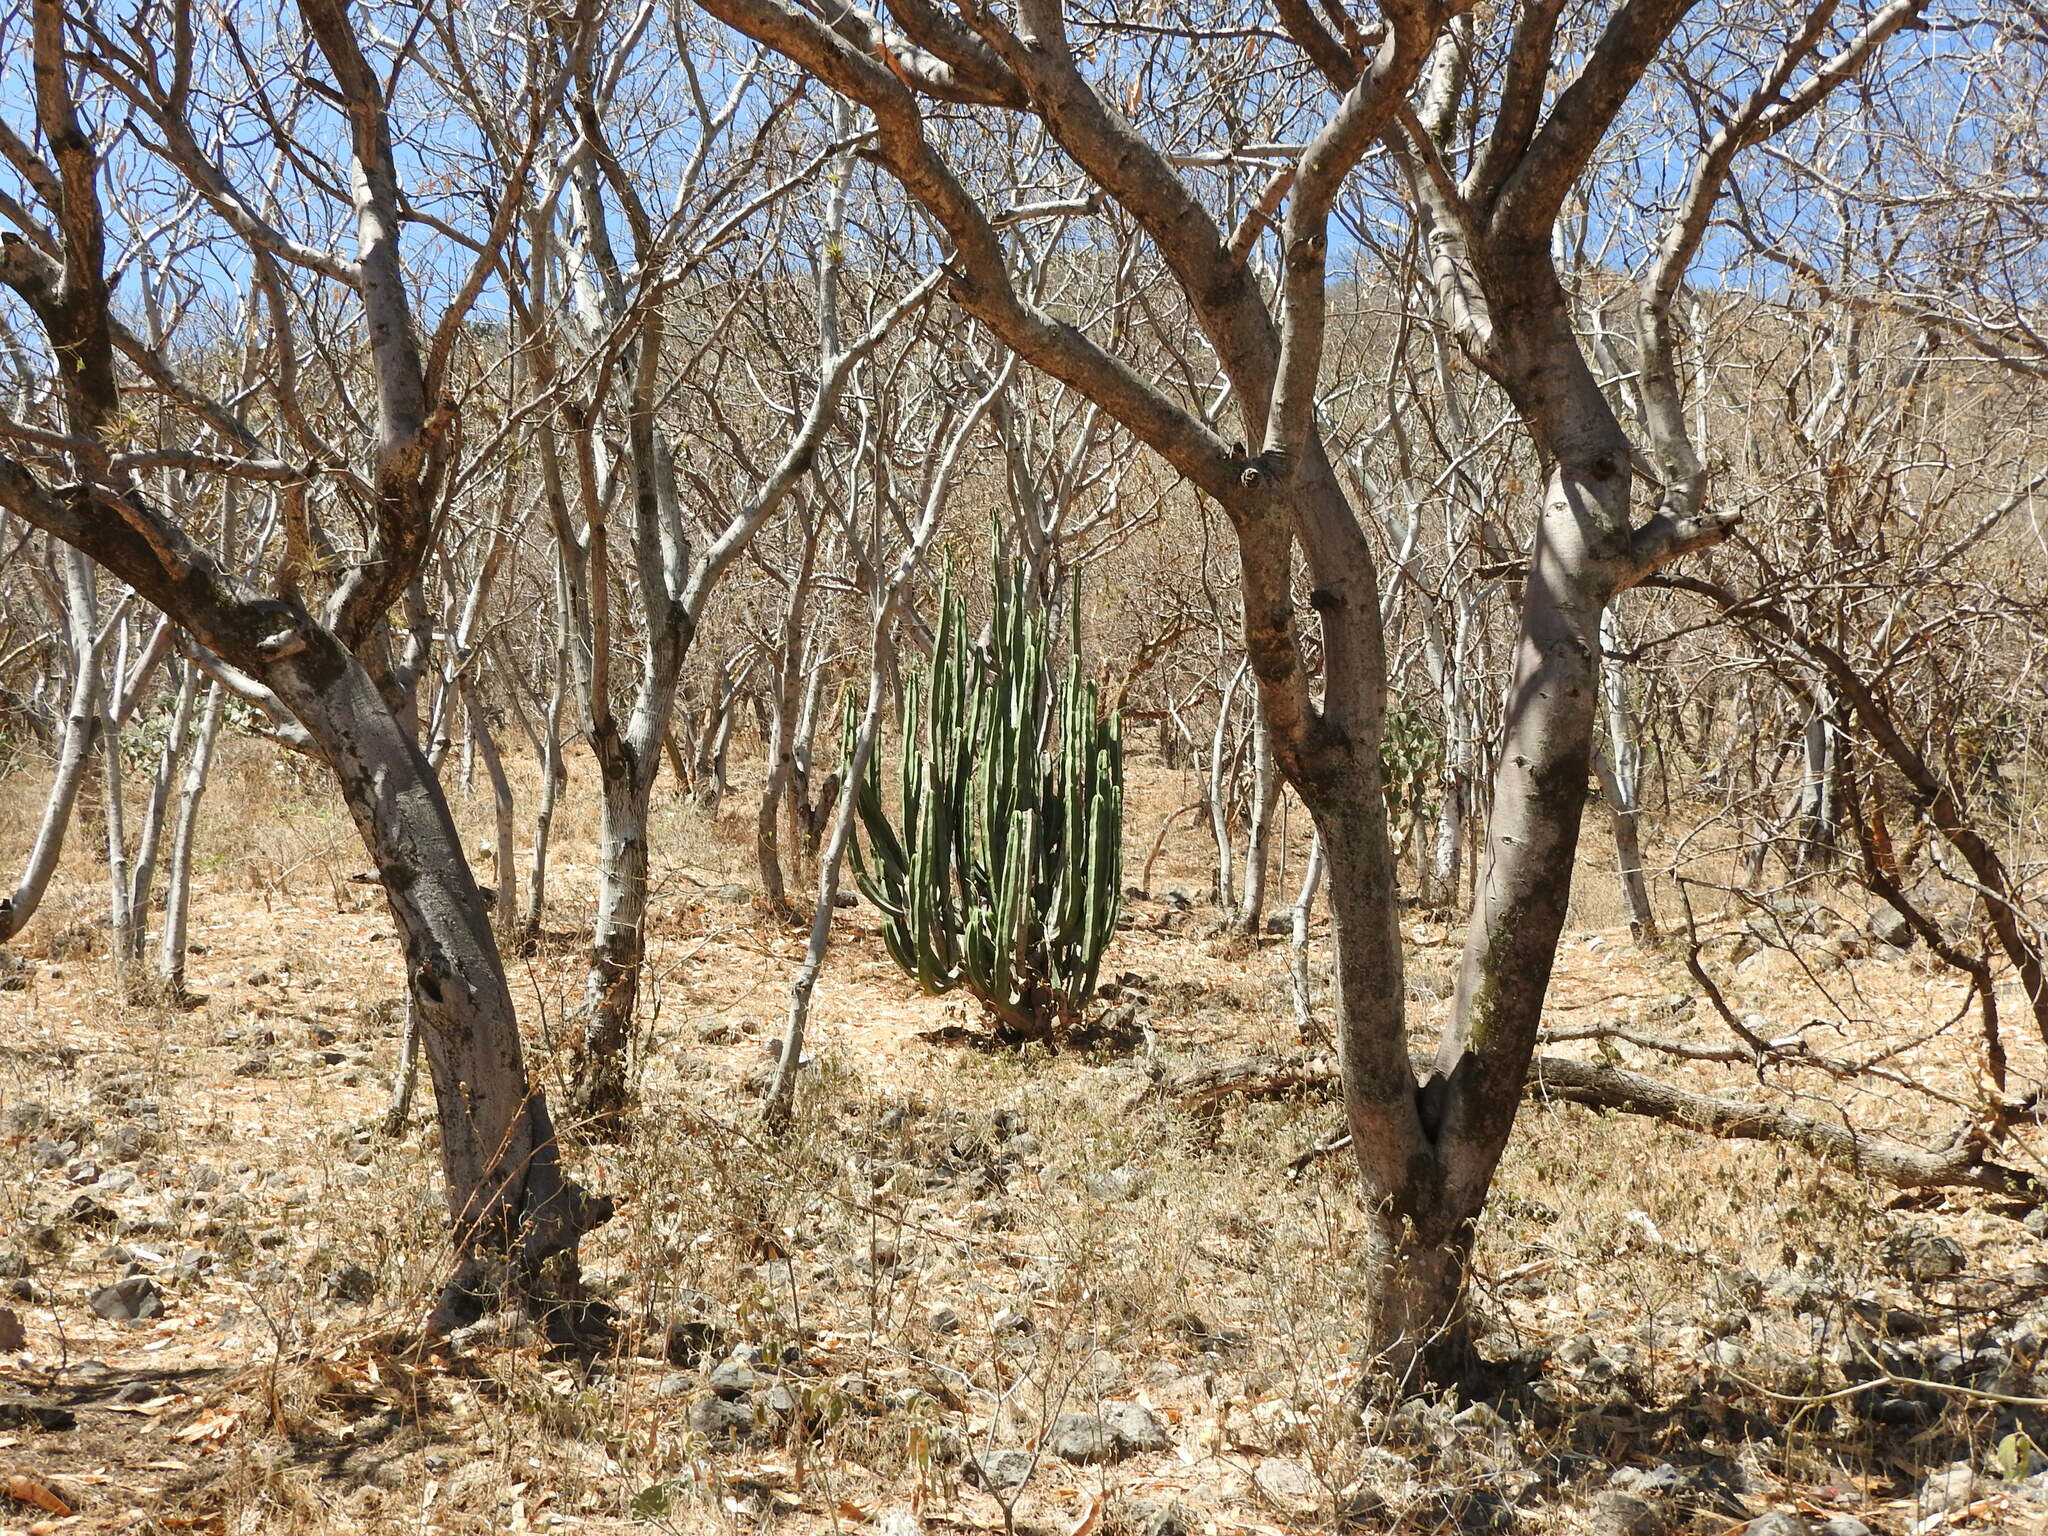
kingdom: Plantae
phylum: Tracheophyta
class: Magnoliopsida
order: Caryophyllales
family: Cactaceae
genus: Stenocereus
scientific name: Stenocereus dumortieri
